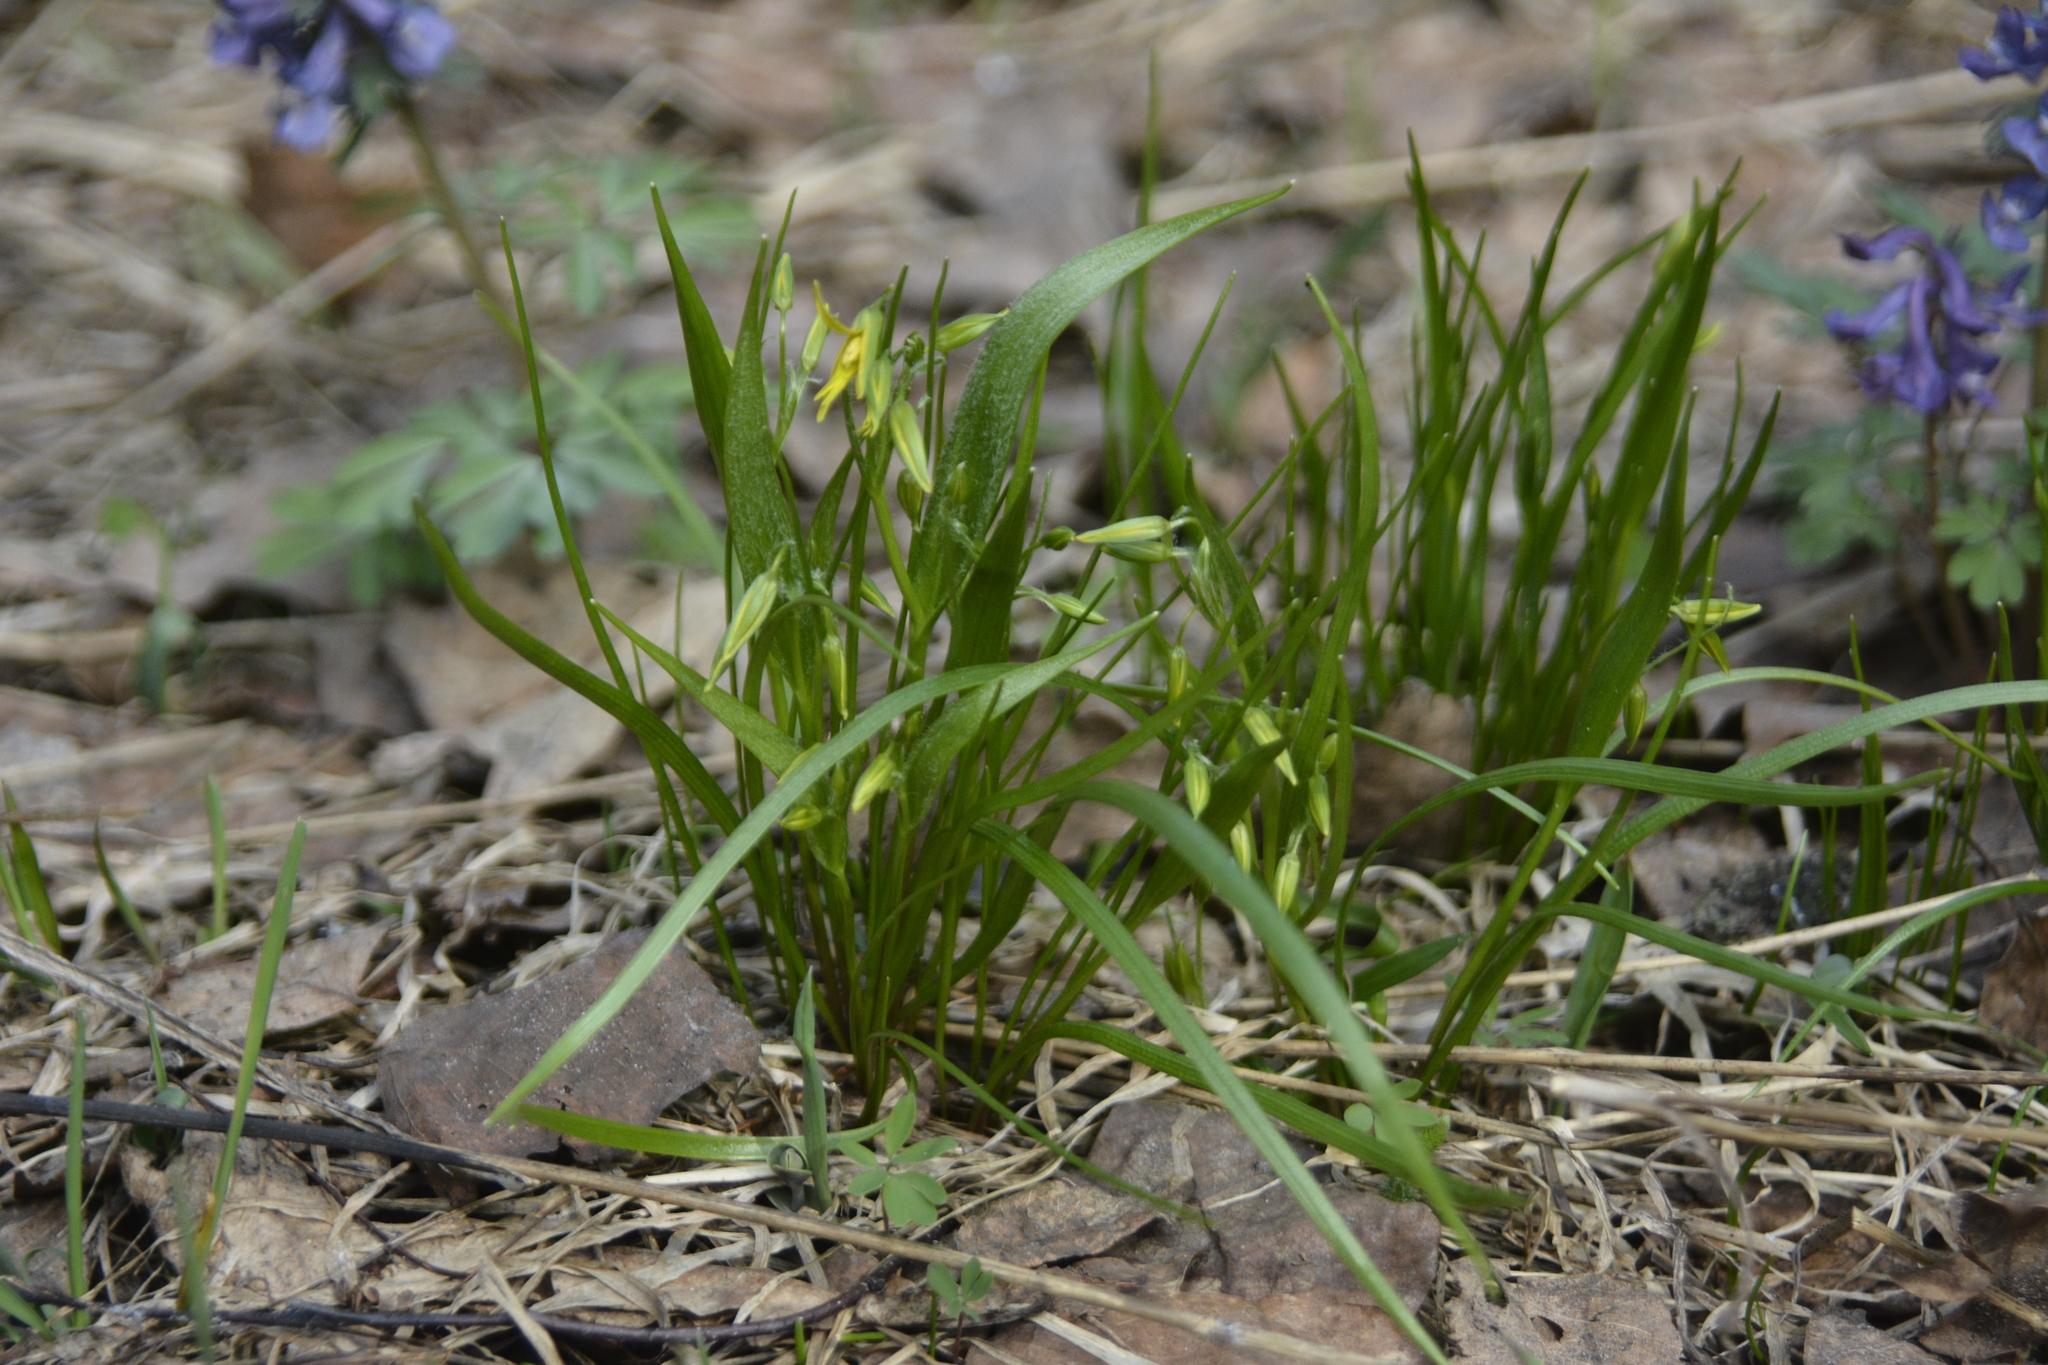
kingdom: Plantae
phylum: Tracheophyta
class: Liliopsida
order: Liliales
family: Liliaceae
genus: Gagea
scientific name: Gagea minima
